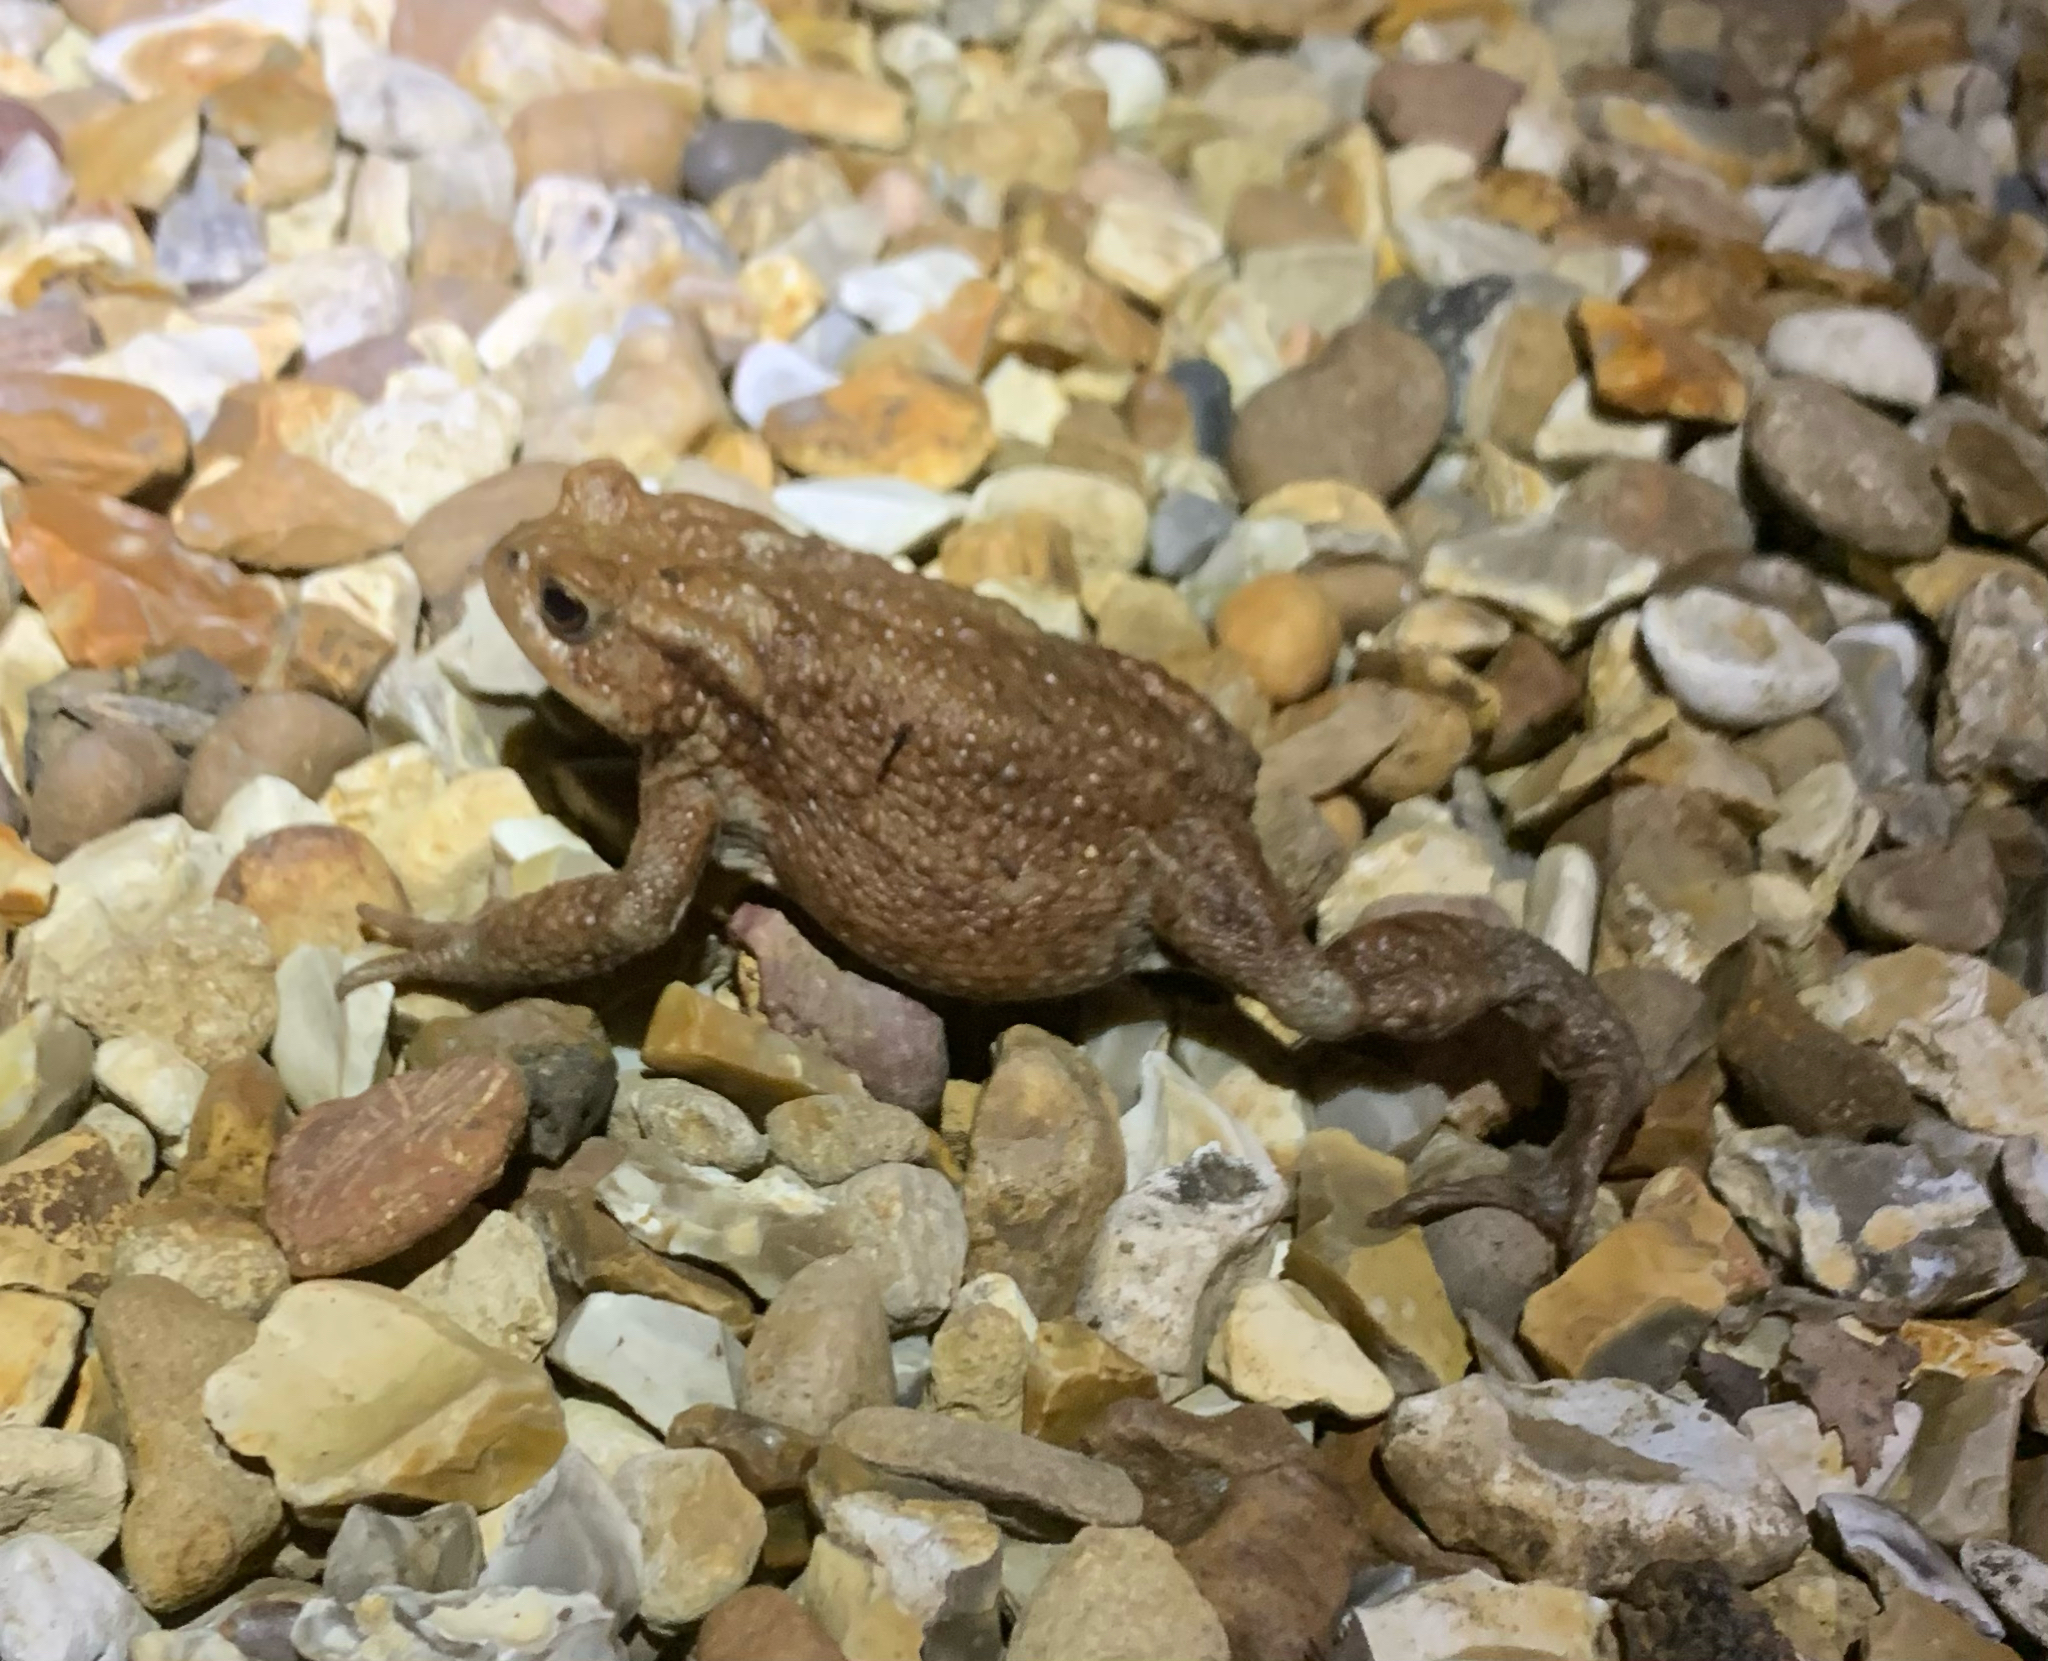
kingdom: Animalia
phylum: Chordata
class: Amphibia
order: Anura
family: Bufonidae
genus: Bufo
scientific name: Bufo bufo
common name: Common toad
